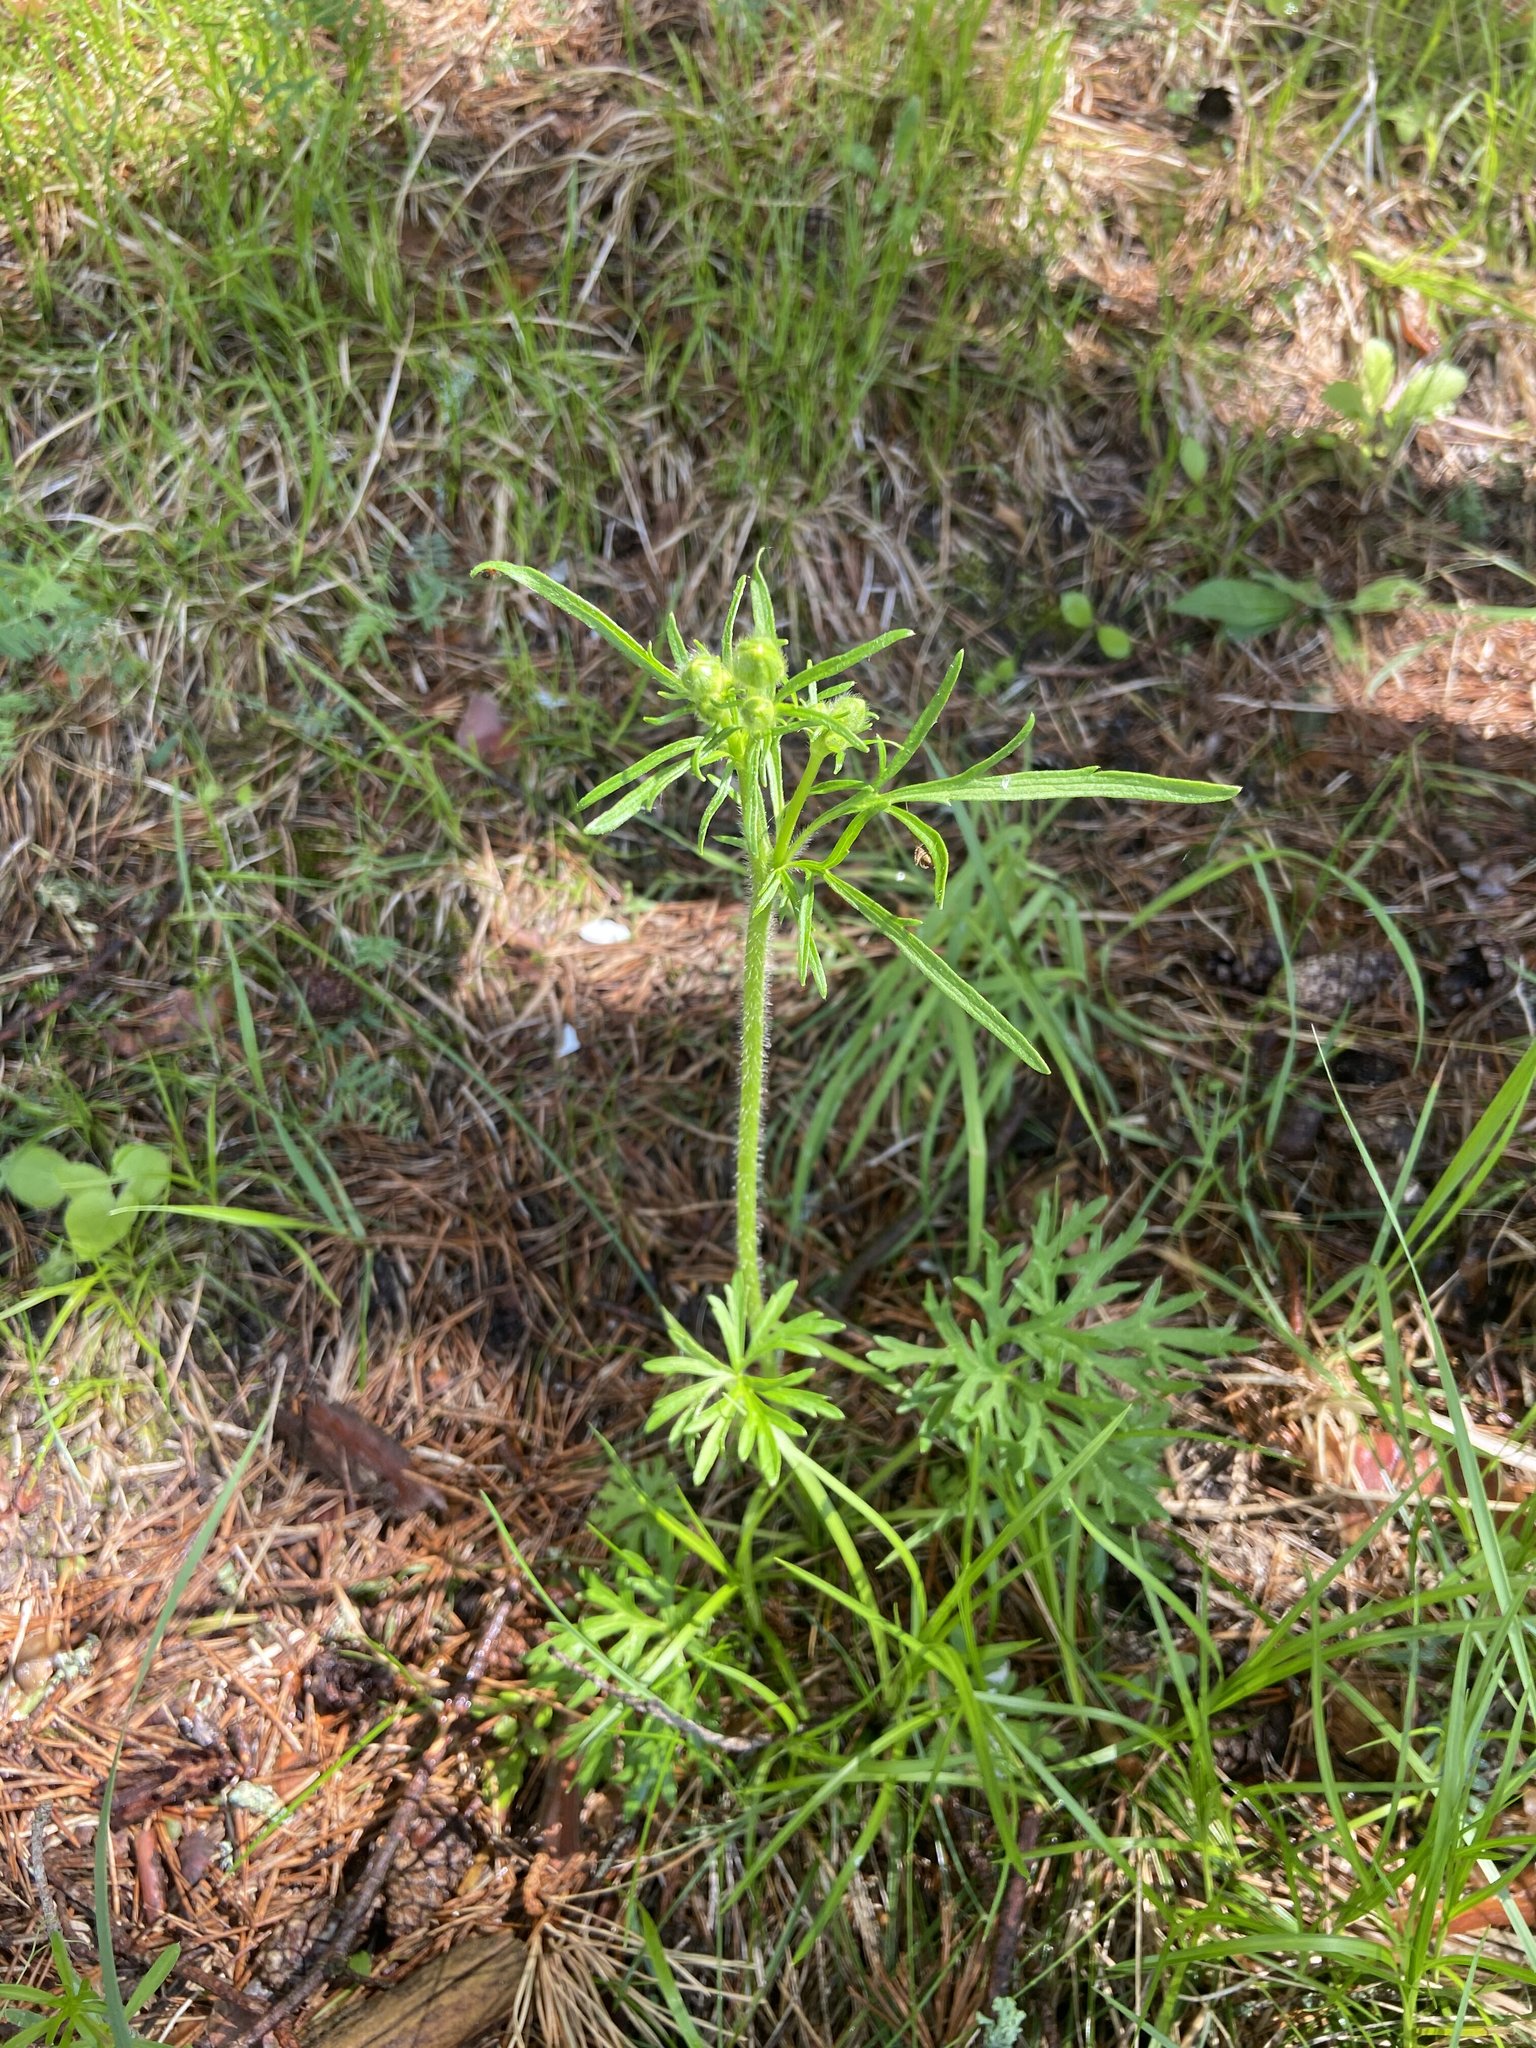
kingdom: Plantae
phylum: Tracheophyta
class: Magnoliopsida
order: Ranunculales
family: Ranunculaceae
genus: Ranunculus
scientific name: Ranunculus polyanthemos
